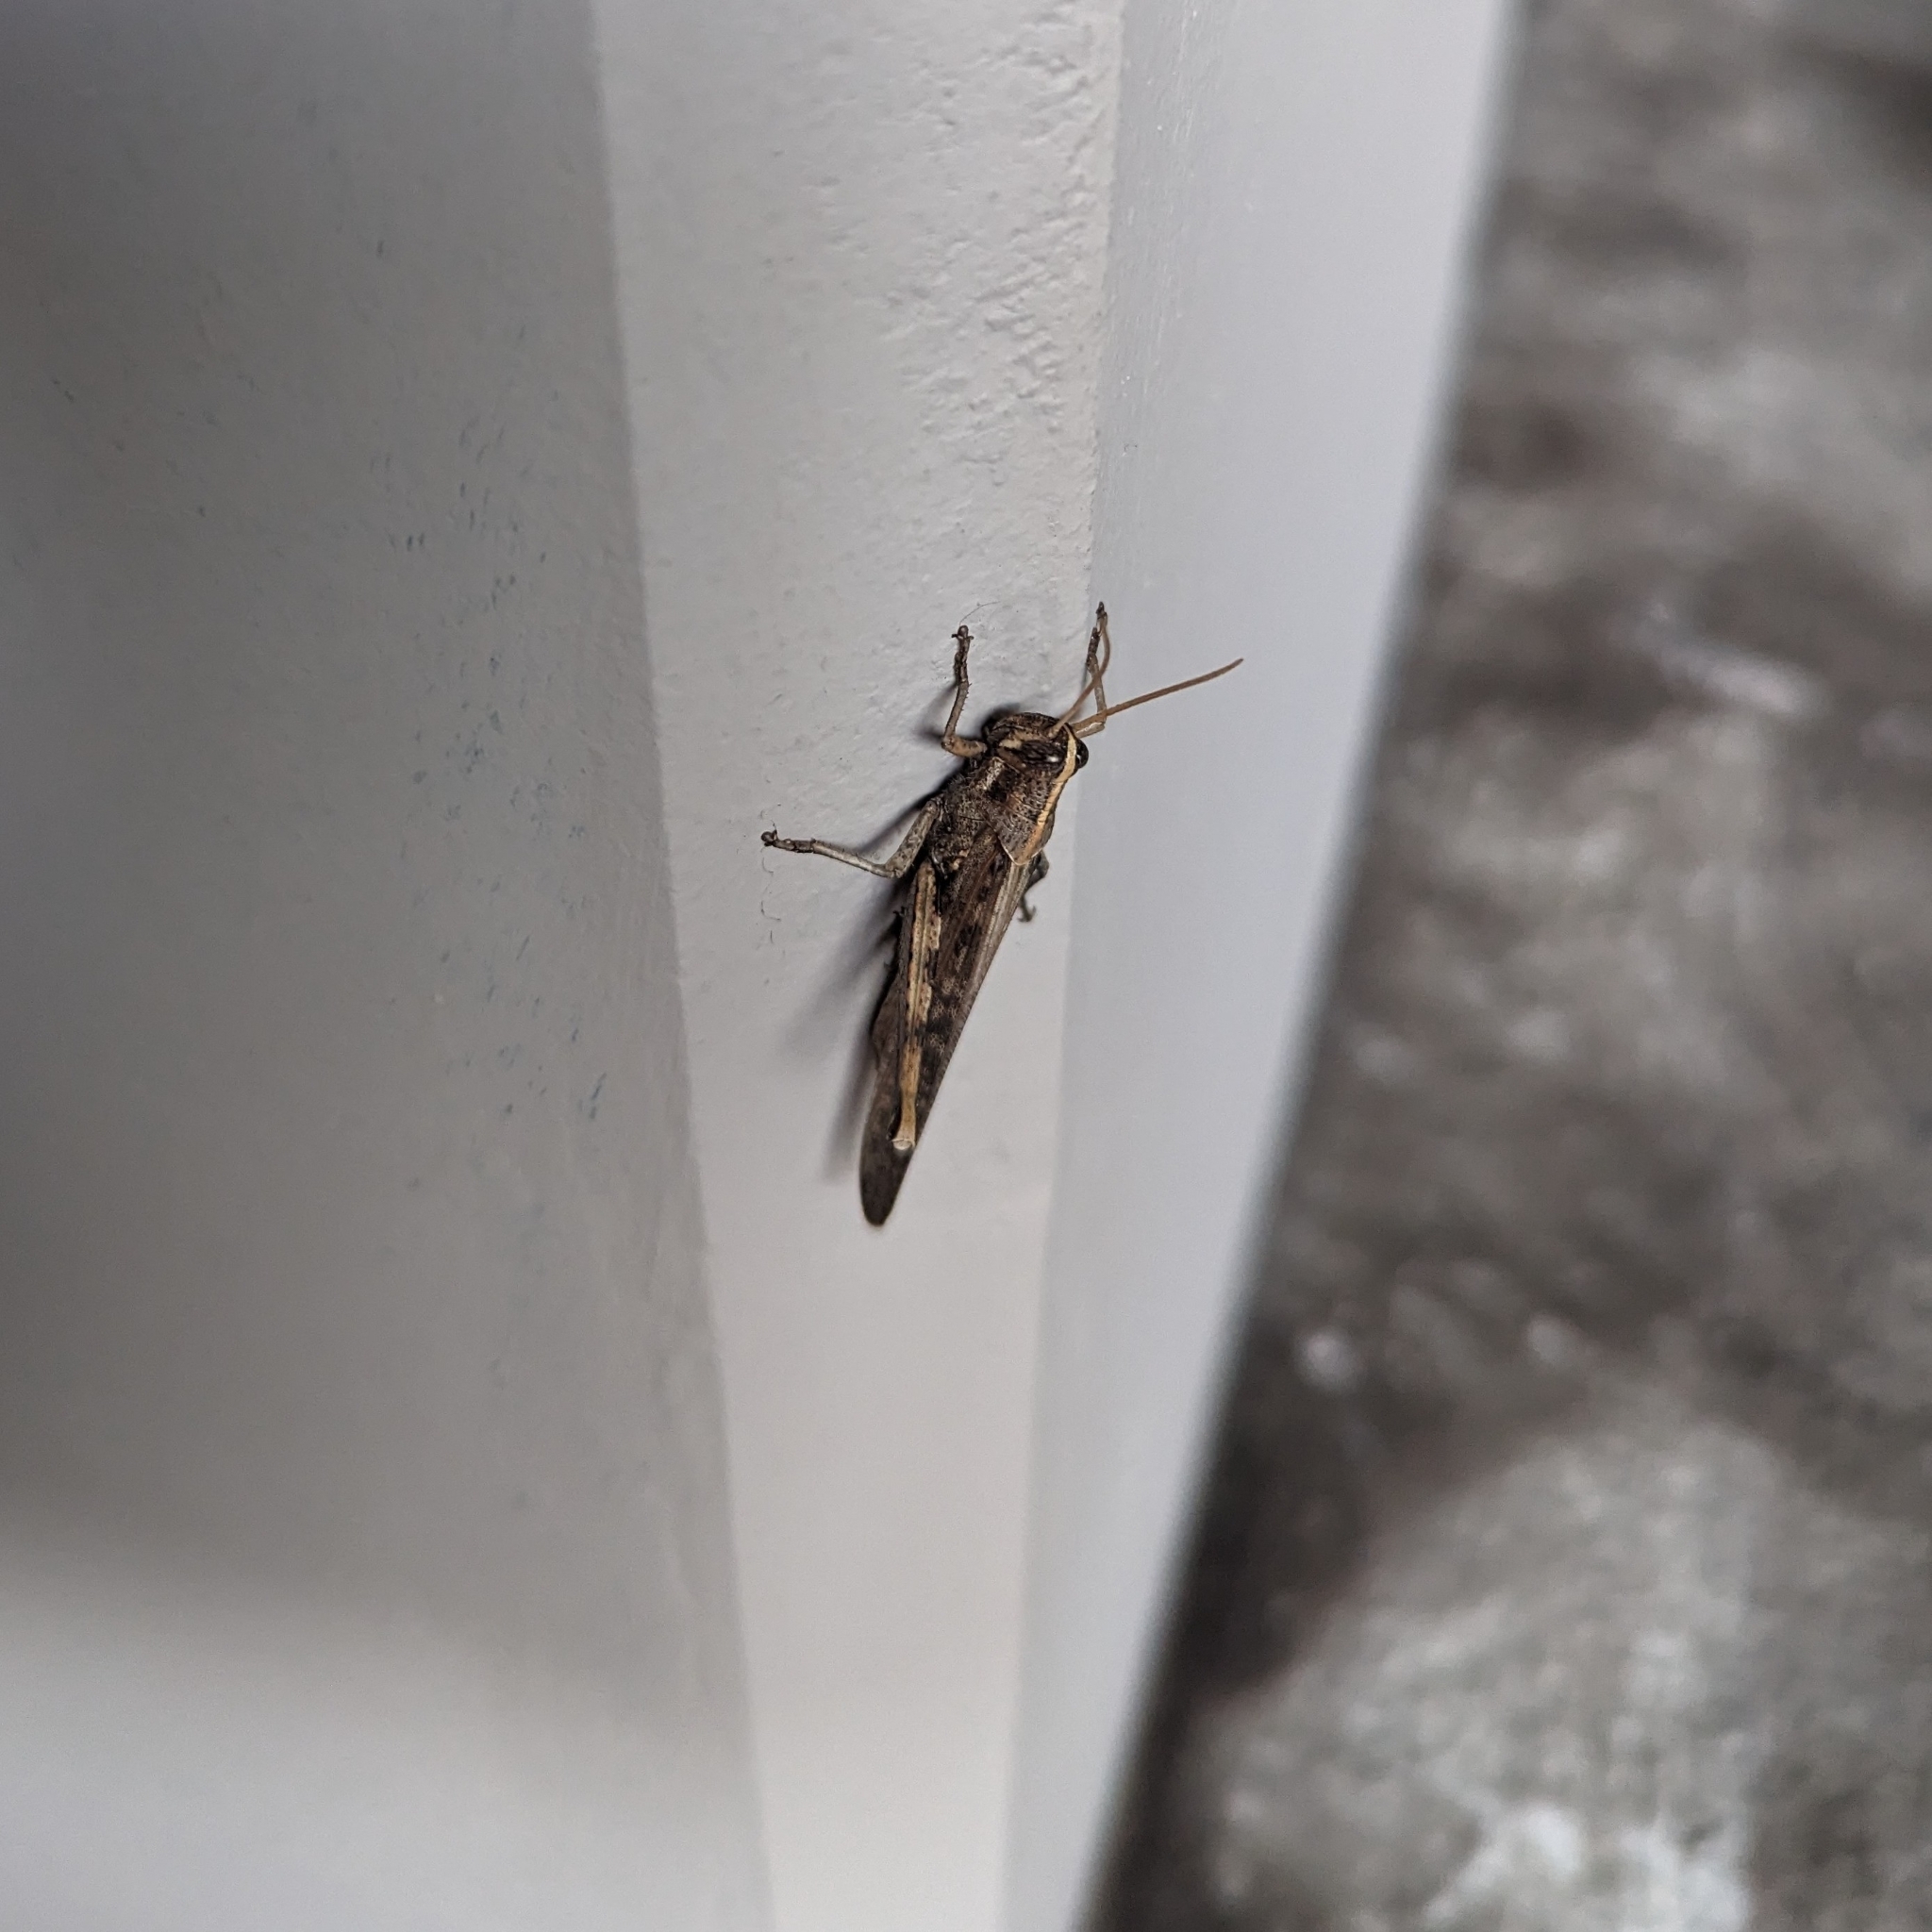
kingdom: Animalia
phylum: Arthropoda
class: Insecta
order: Orthoptera
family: Acrididae
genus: Schistocerca
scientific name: Schistocerca nitens
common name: Vagrant grasshopper
